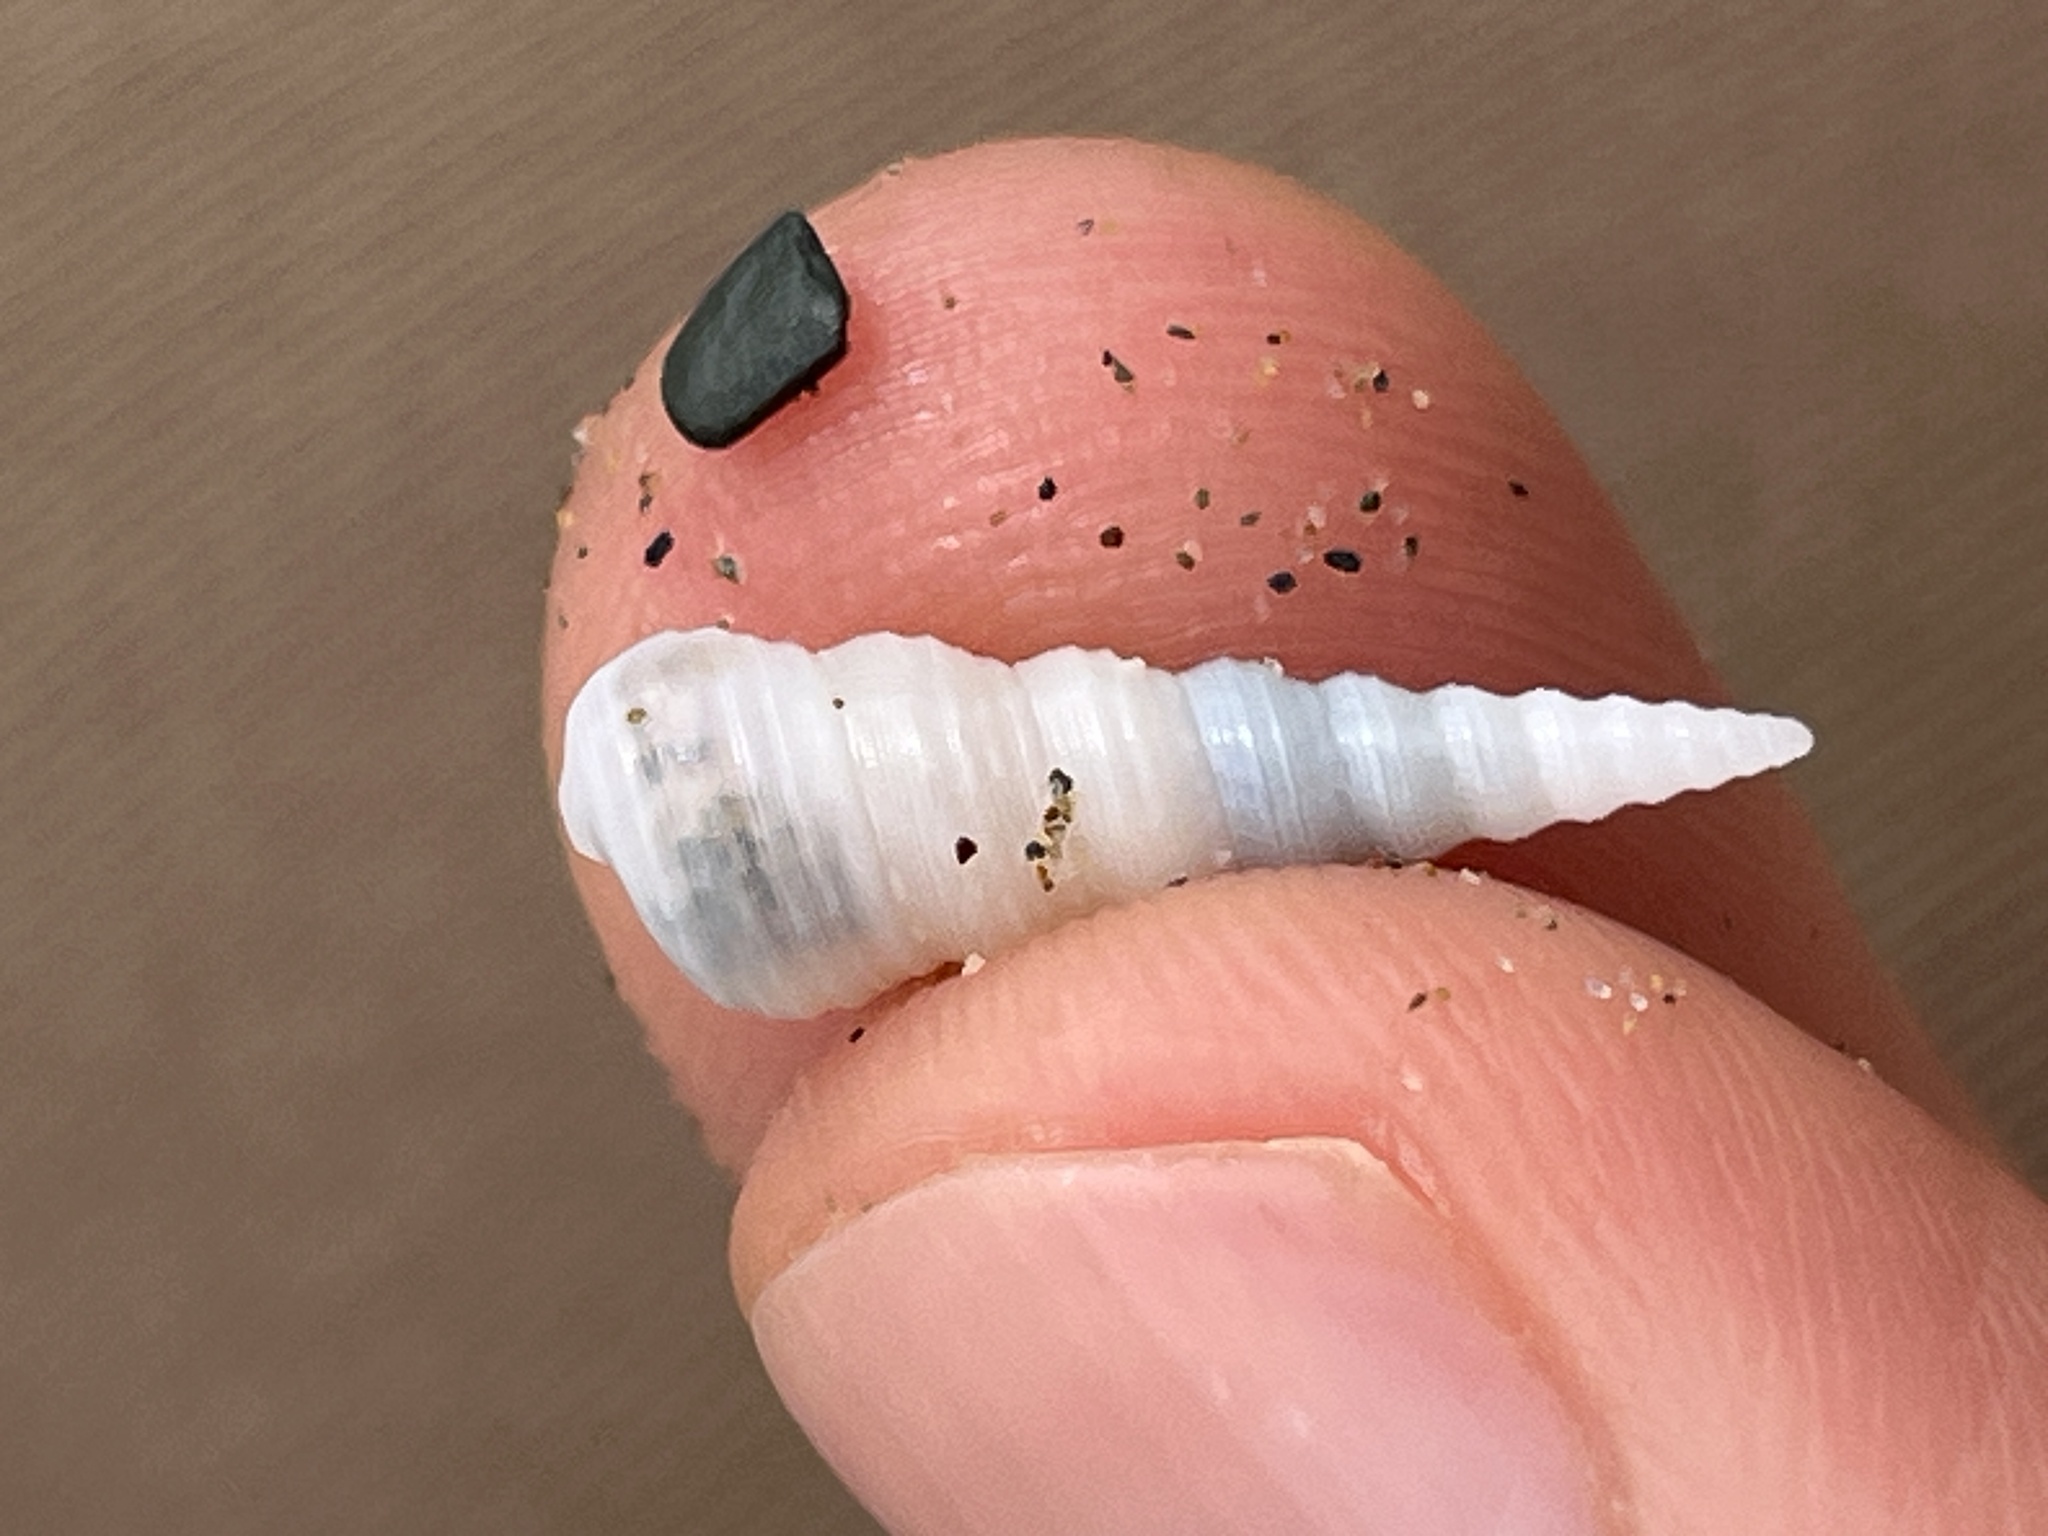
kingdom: Animalia
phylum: Mollusca
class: Gastropoda
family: Turritellidae
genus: Mesalia
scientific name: Mesalia mesal
